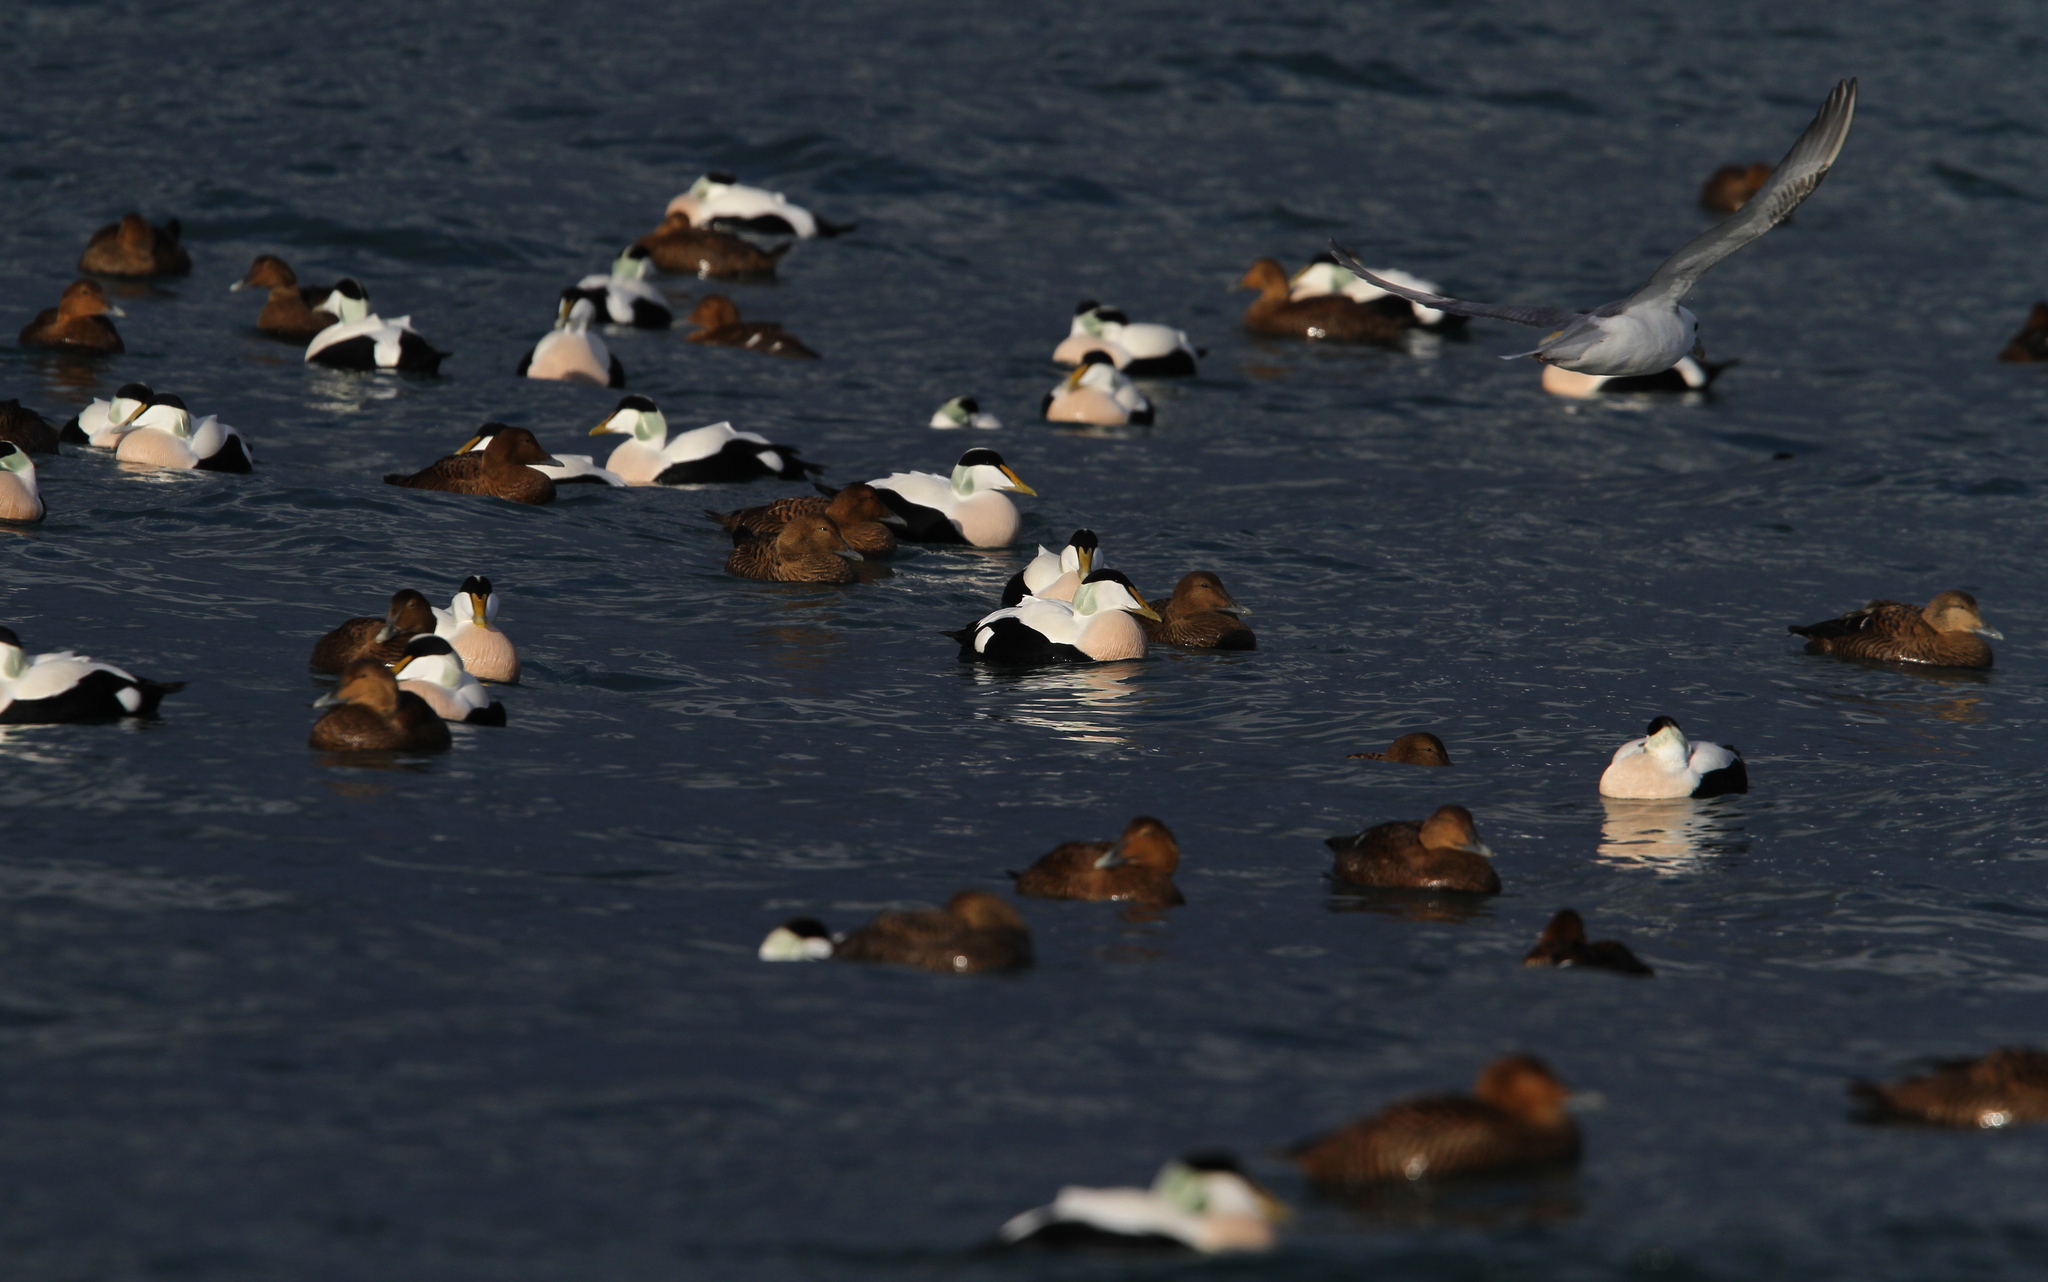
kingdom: Animalia
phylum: Chordata
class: Aves
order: Anseriformes
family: Anatidae
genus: Somateria
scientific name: Somateria mollissima
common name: Common eider
